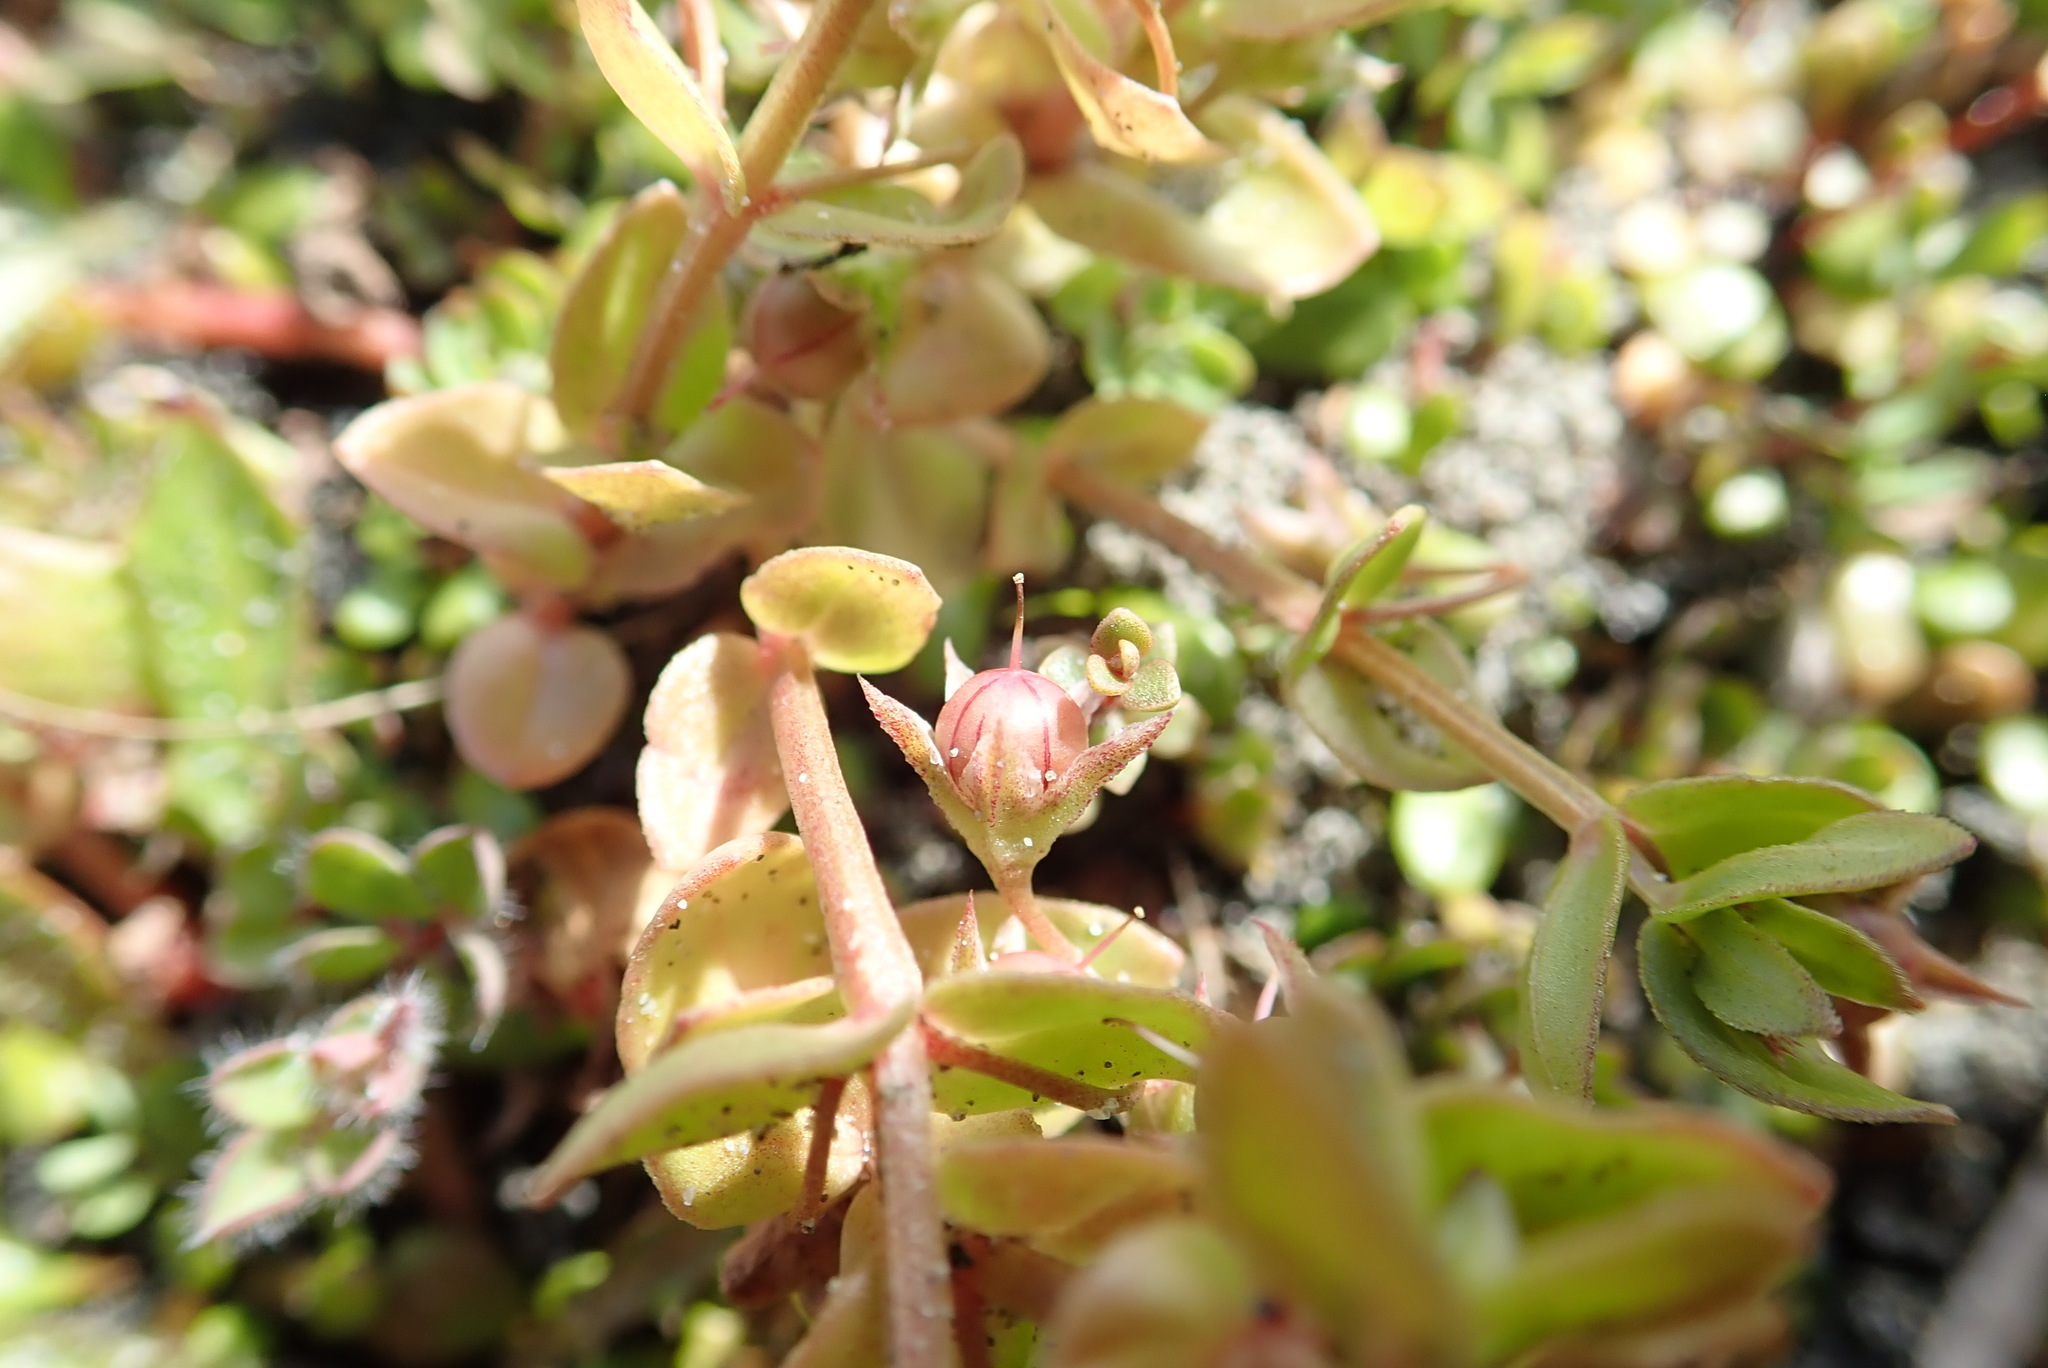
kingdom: Plantae
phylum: Tracheophyta
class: Magnoliopsida
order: Ericales
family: Primulaceae
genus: Lysimachia
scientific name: Lysimachia arvensis
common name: Scarlet pimpernel
